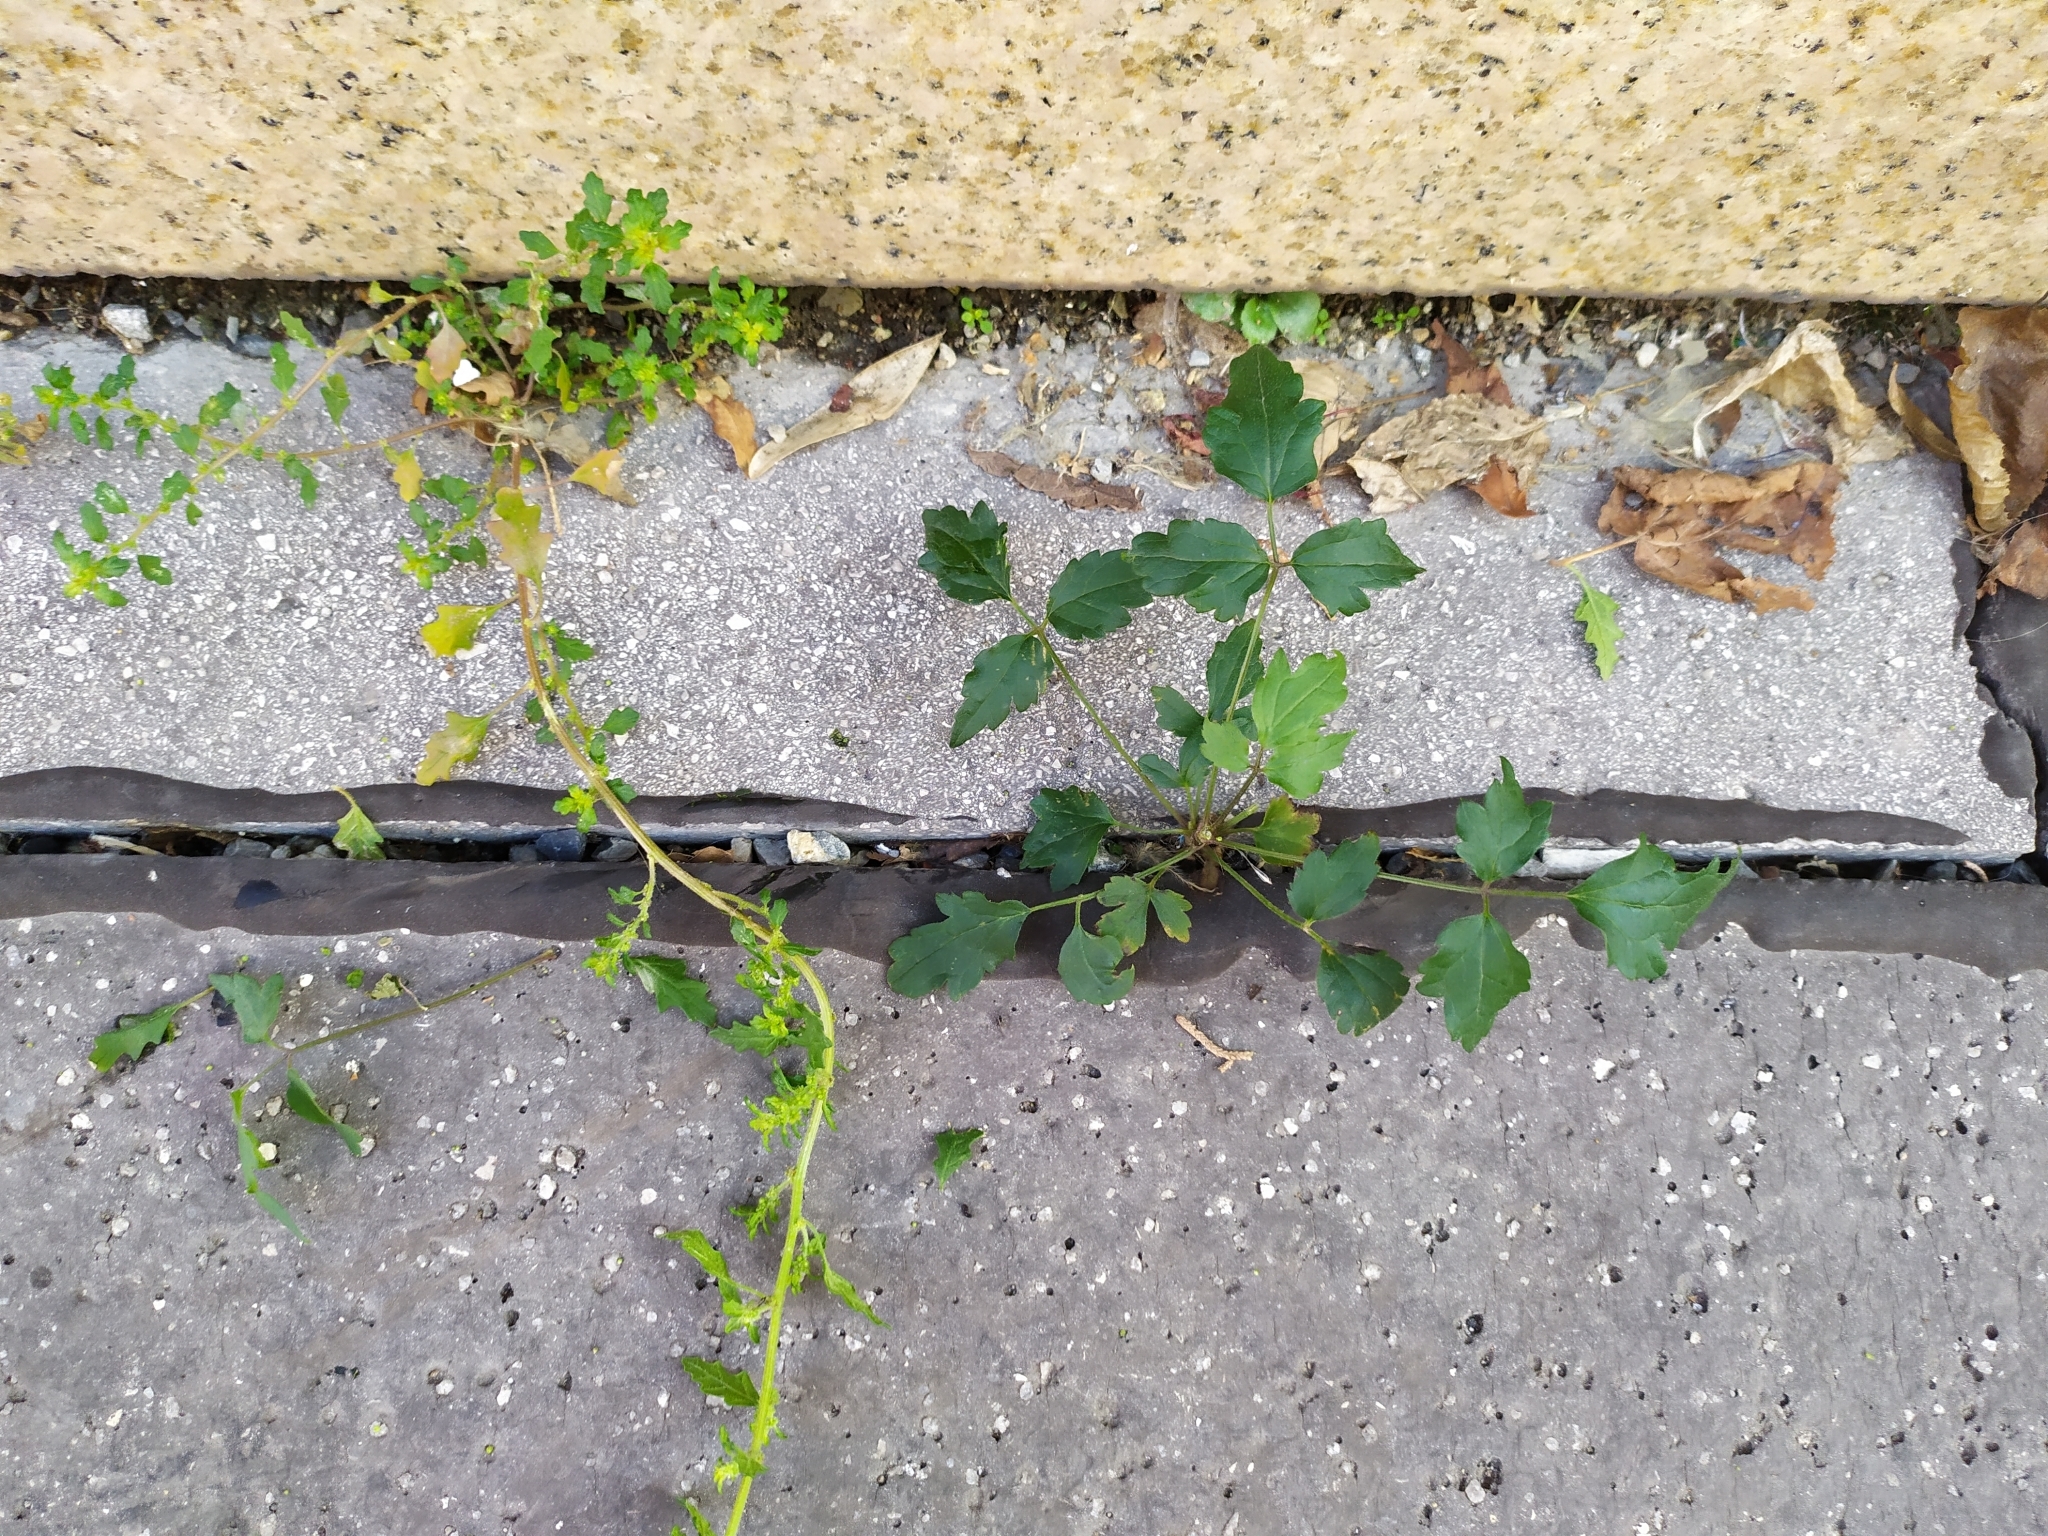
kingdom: Plantae
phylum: Tracheophyta
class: Magnoliopsida
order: Ranunculales
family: Ranunculaceae
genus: Clematis
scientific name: Clematis vitalba
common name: Evergreen clematis
